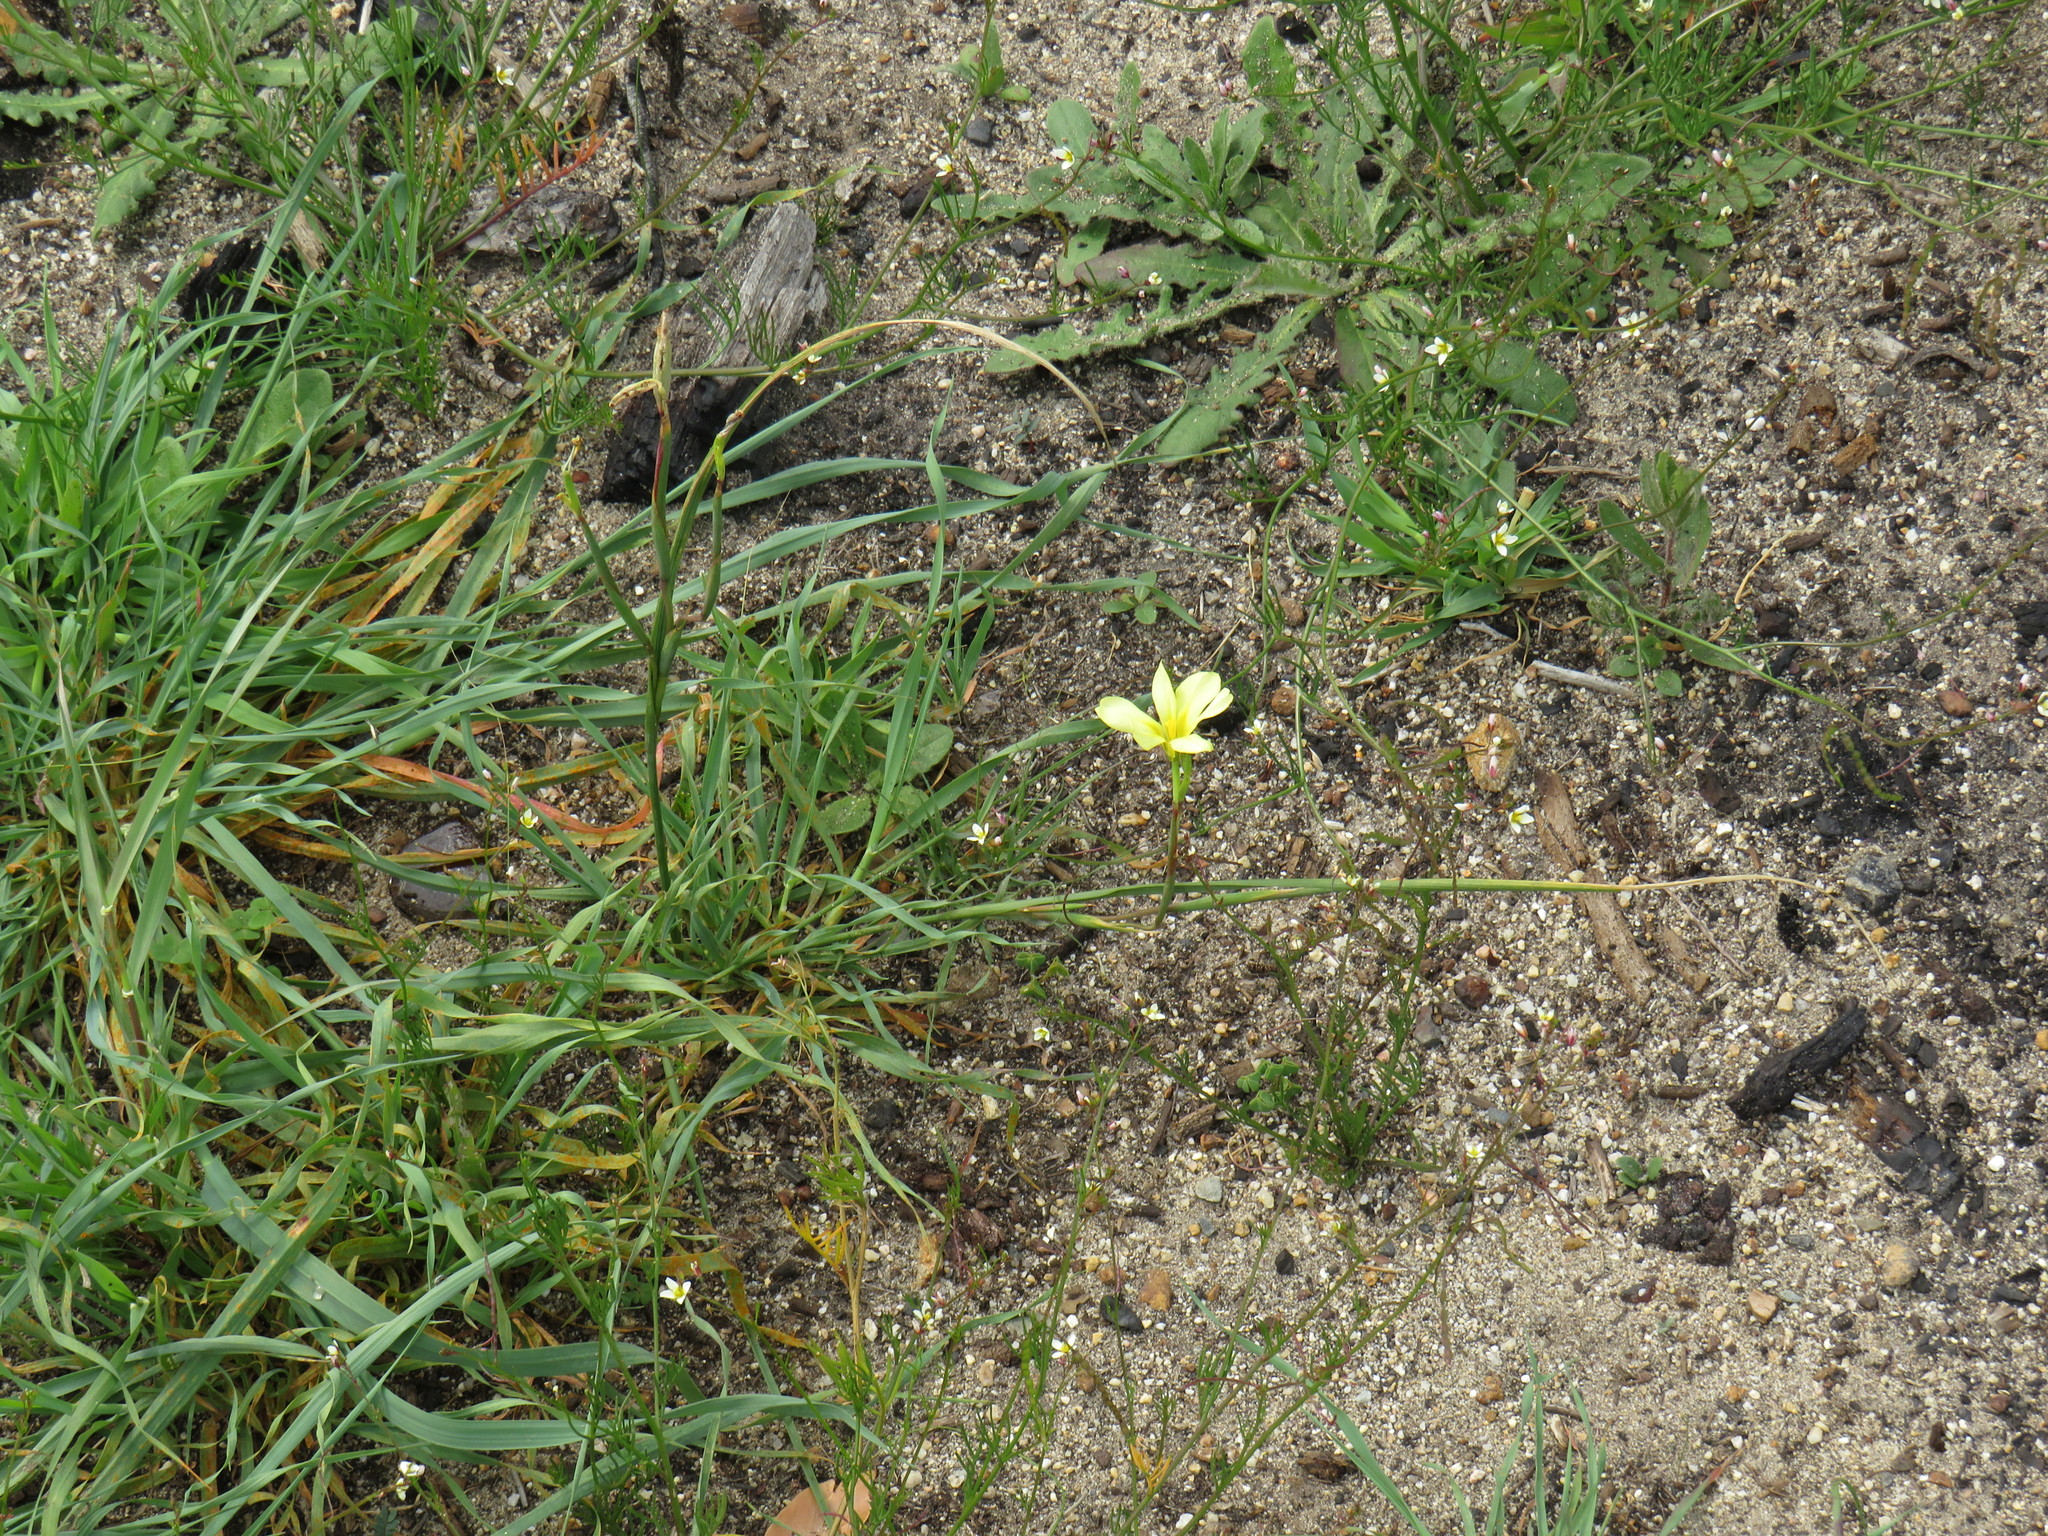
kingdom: Plantae
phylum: Tracheophyta
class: Liliopsida
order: Asparagales
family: Iridaceae
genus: Moraea
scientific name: Moraea collina
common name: Cape-tulip
